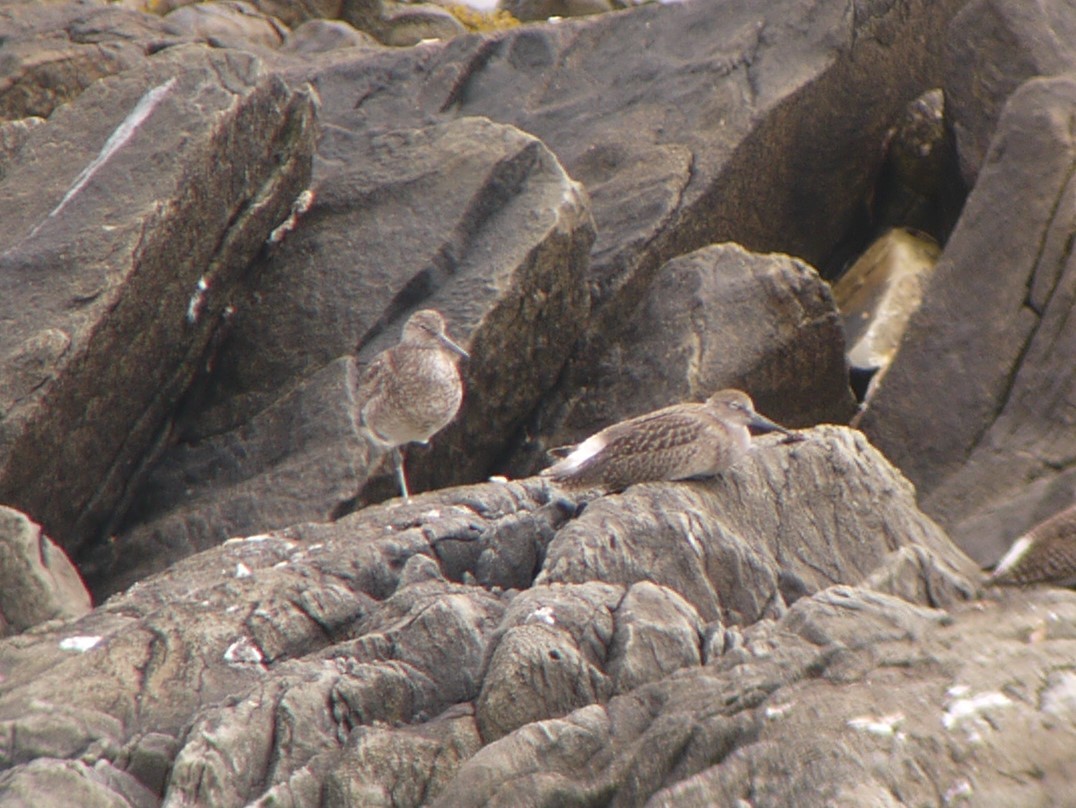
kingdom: Animalia
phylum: Chordata
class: Aves
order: Charadriiformes
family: Scolopacidae
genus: Tringa
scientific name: Tringa semipalmata
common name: Willet
